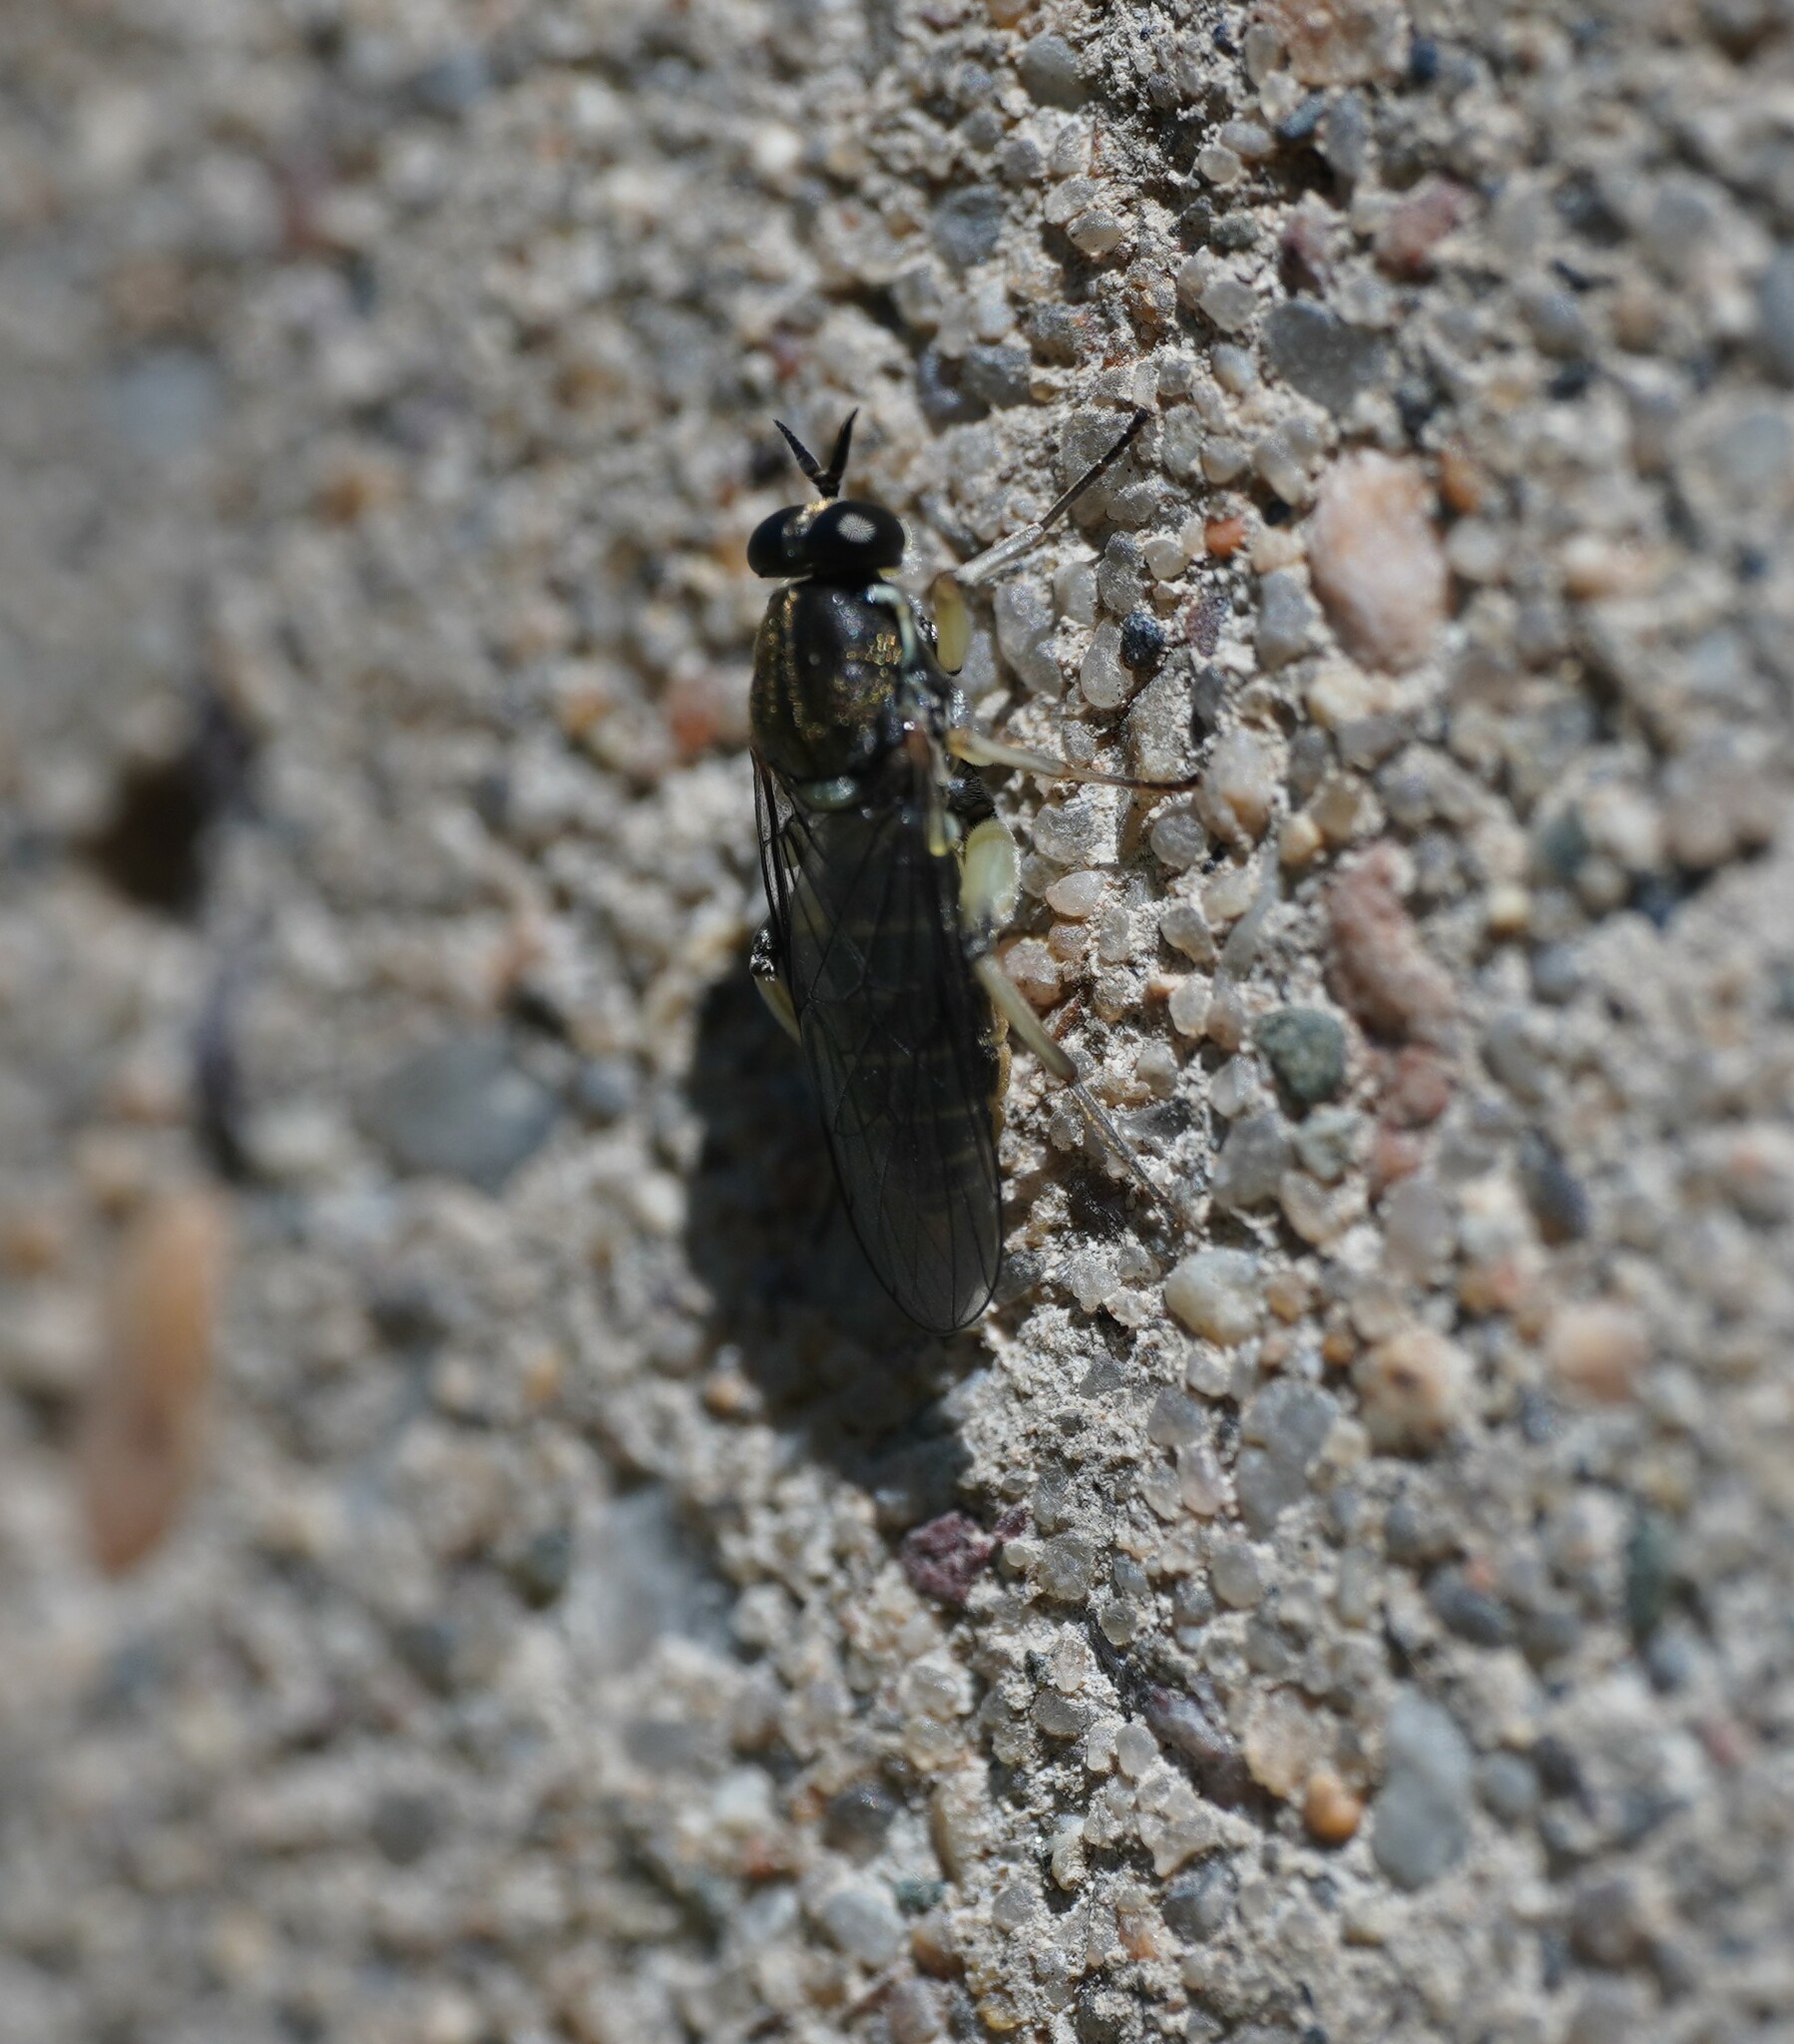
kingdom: Animalia
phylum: Arthropoda
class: Insecta
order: Diptera
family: Xylomyidae
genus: Solva
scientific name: Solva marginata
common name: Drab wood-soldierfly
